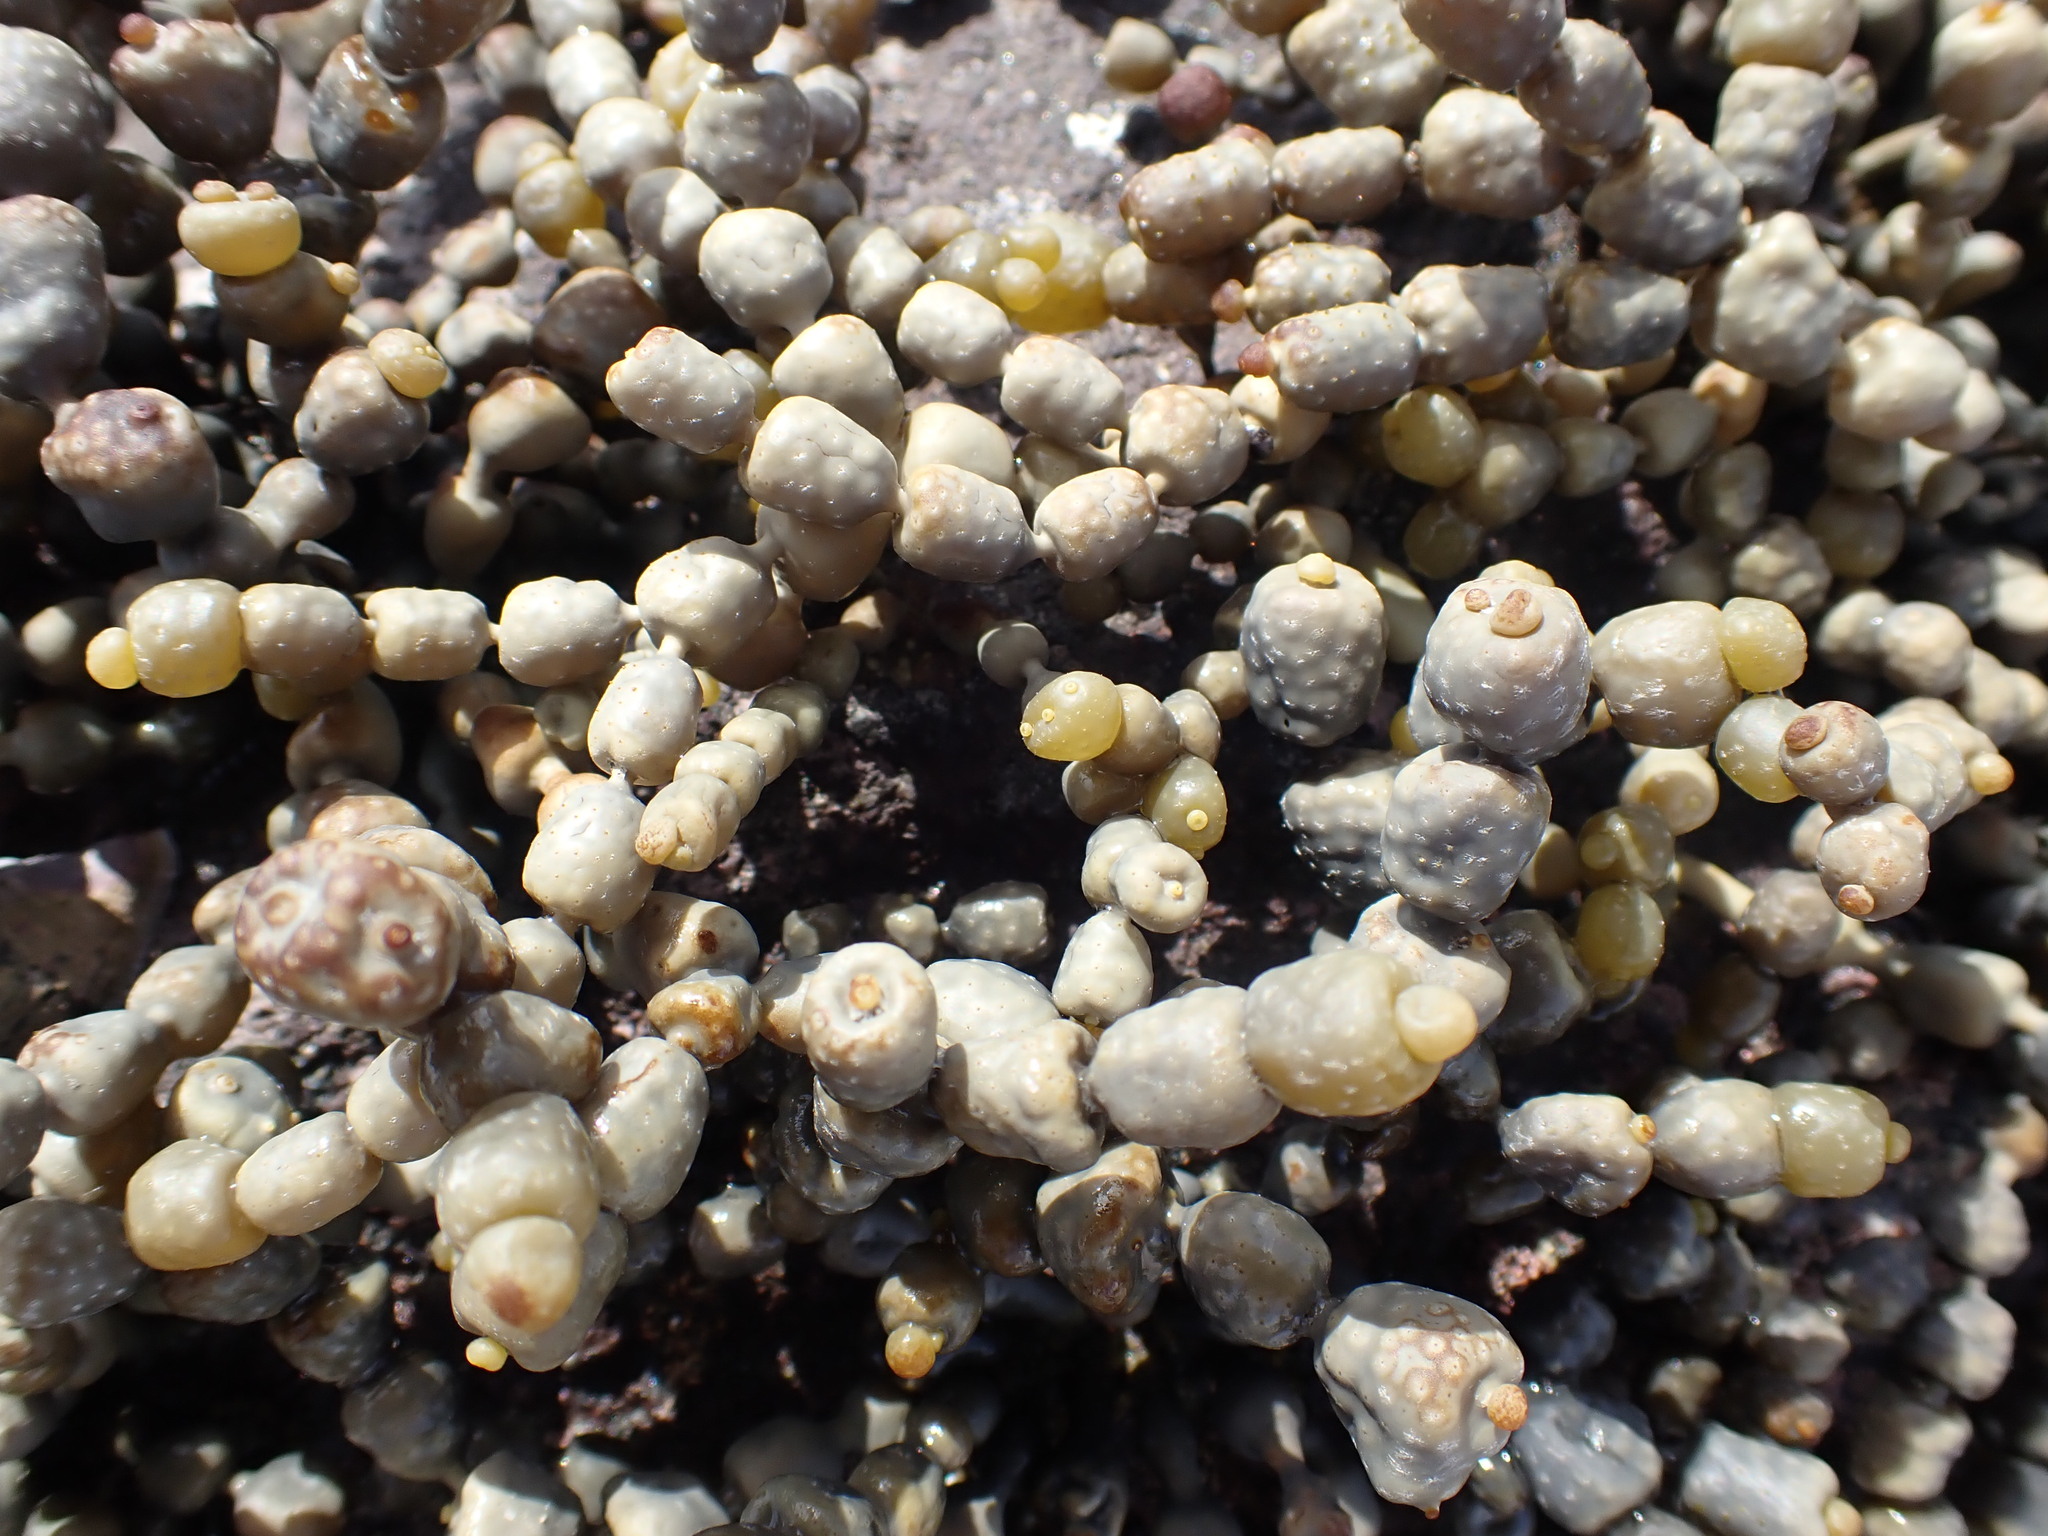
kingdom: Chromista
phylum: Ochrophyta
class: Phaeophyceae
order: Fucales
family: Hormosiraceae
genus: Hormosira
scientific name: Hormosira banksii
